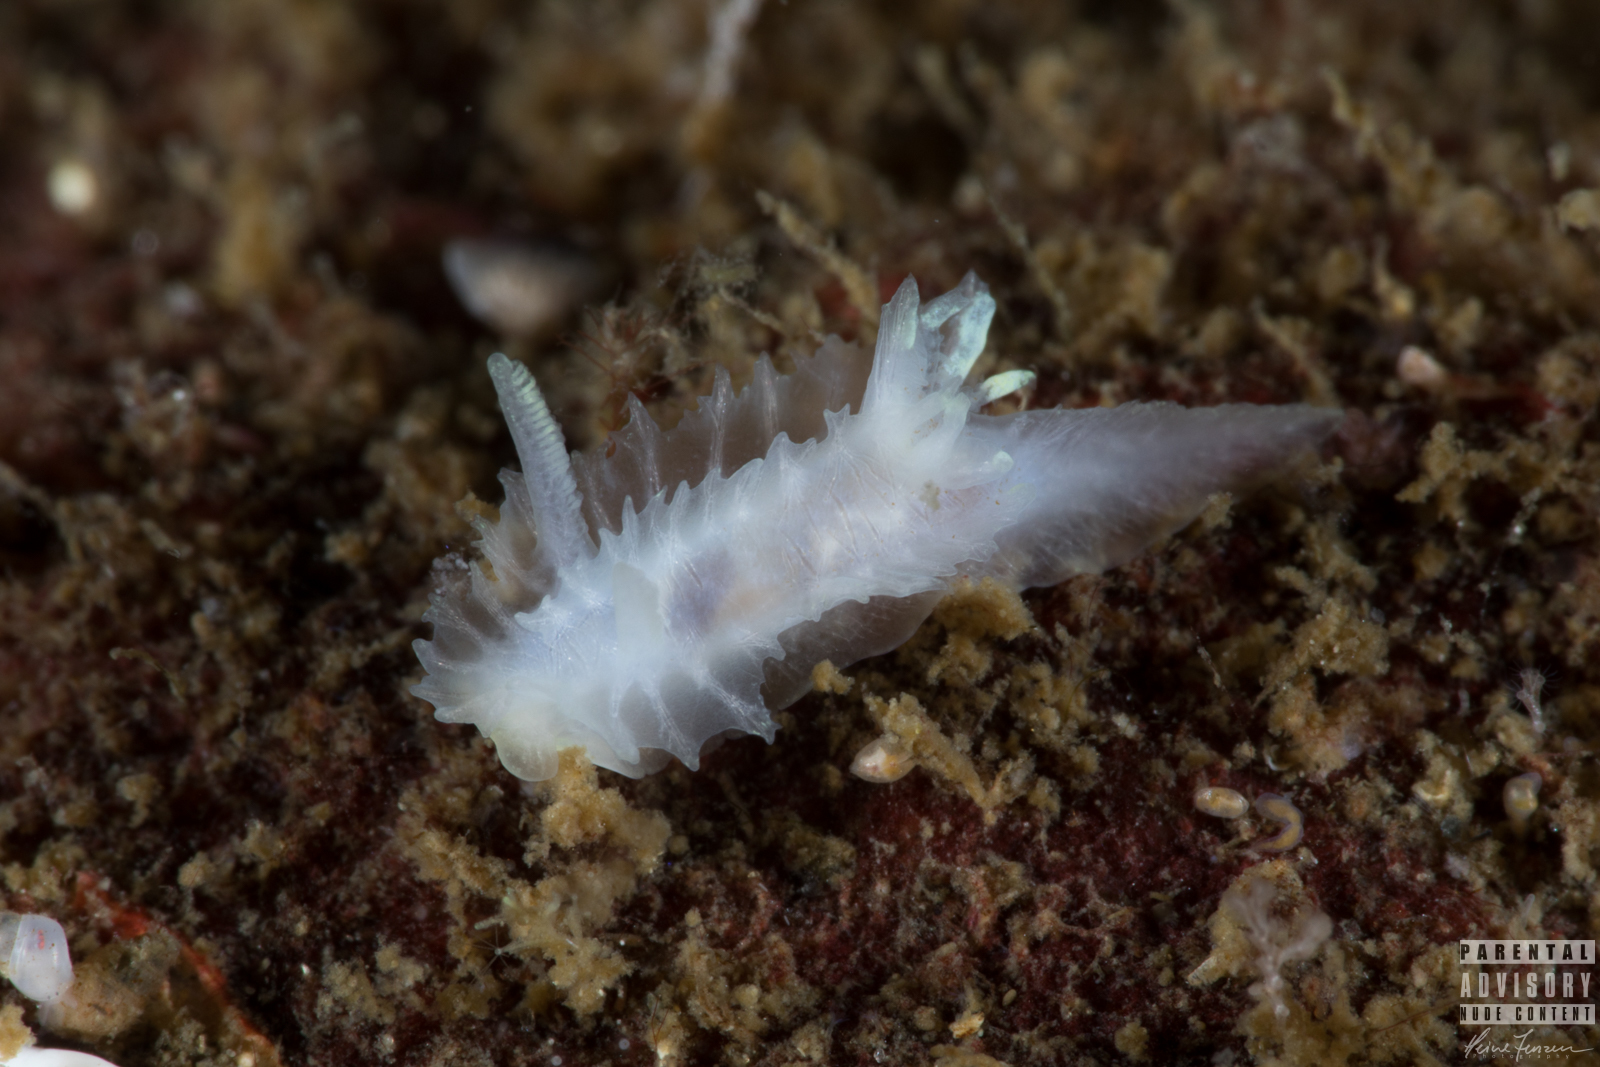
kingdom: Animalia
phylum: Mollusca
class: Gastropoda
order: Nudibranchia
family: Goniodorididae
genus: Lophodoris
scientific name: Lophodoris danielsseni
